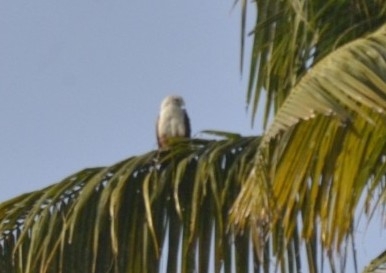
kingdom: Animalia
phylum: Chordata
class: Aves
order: Accipitriformes
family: Accipitridae
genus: Haliastur
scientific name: Haliastur indus
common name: Brahminy kite
